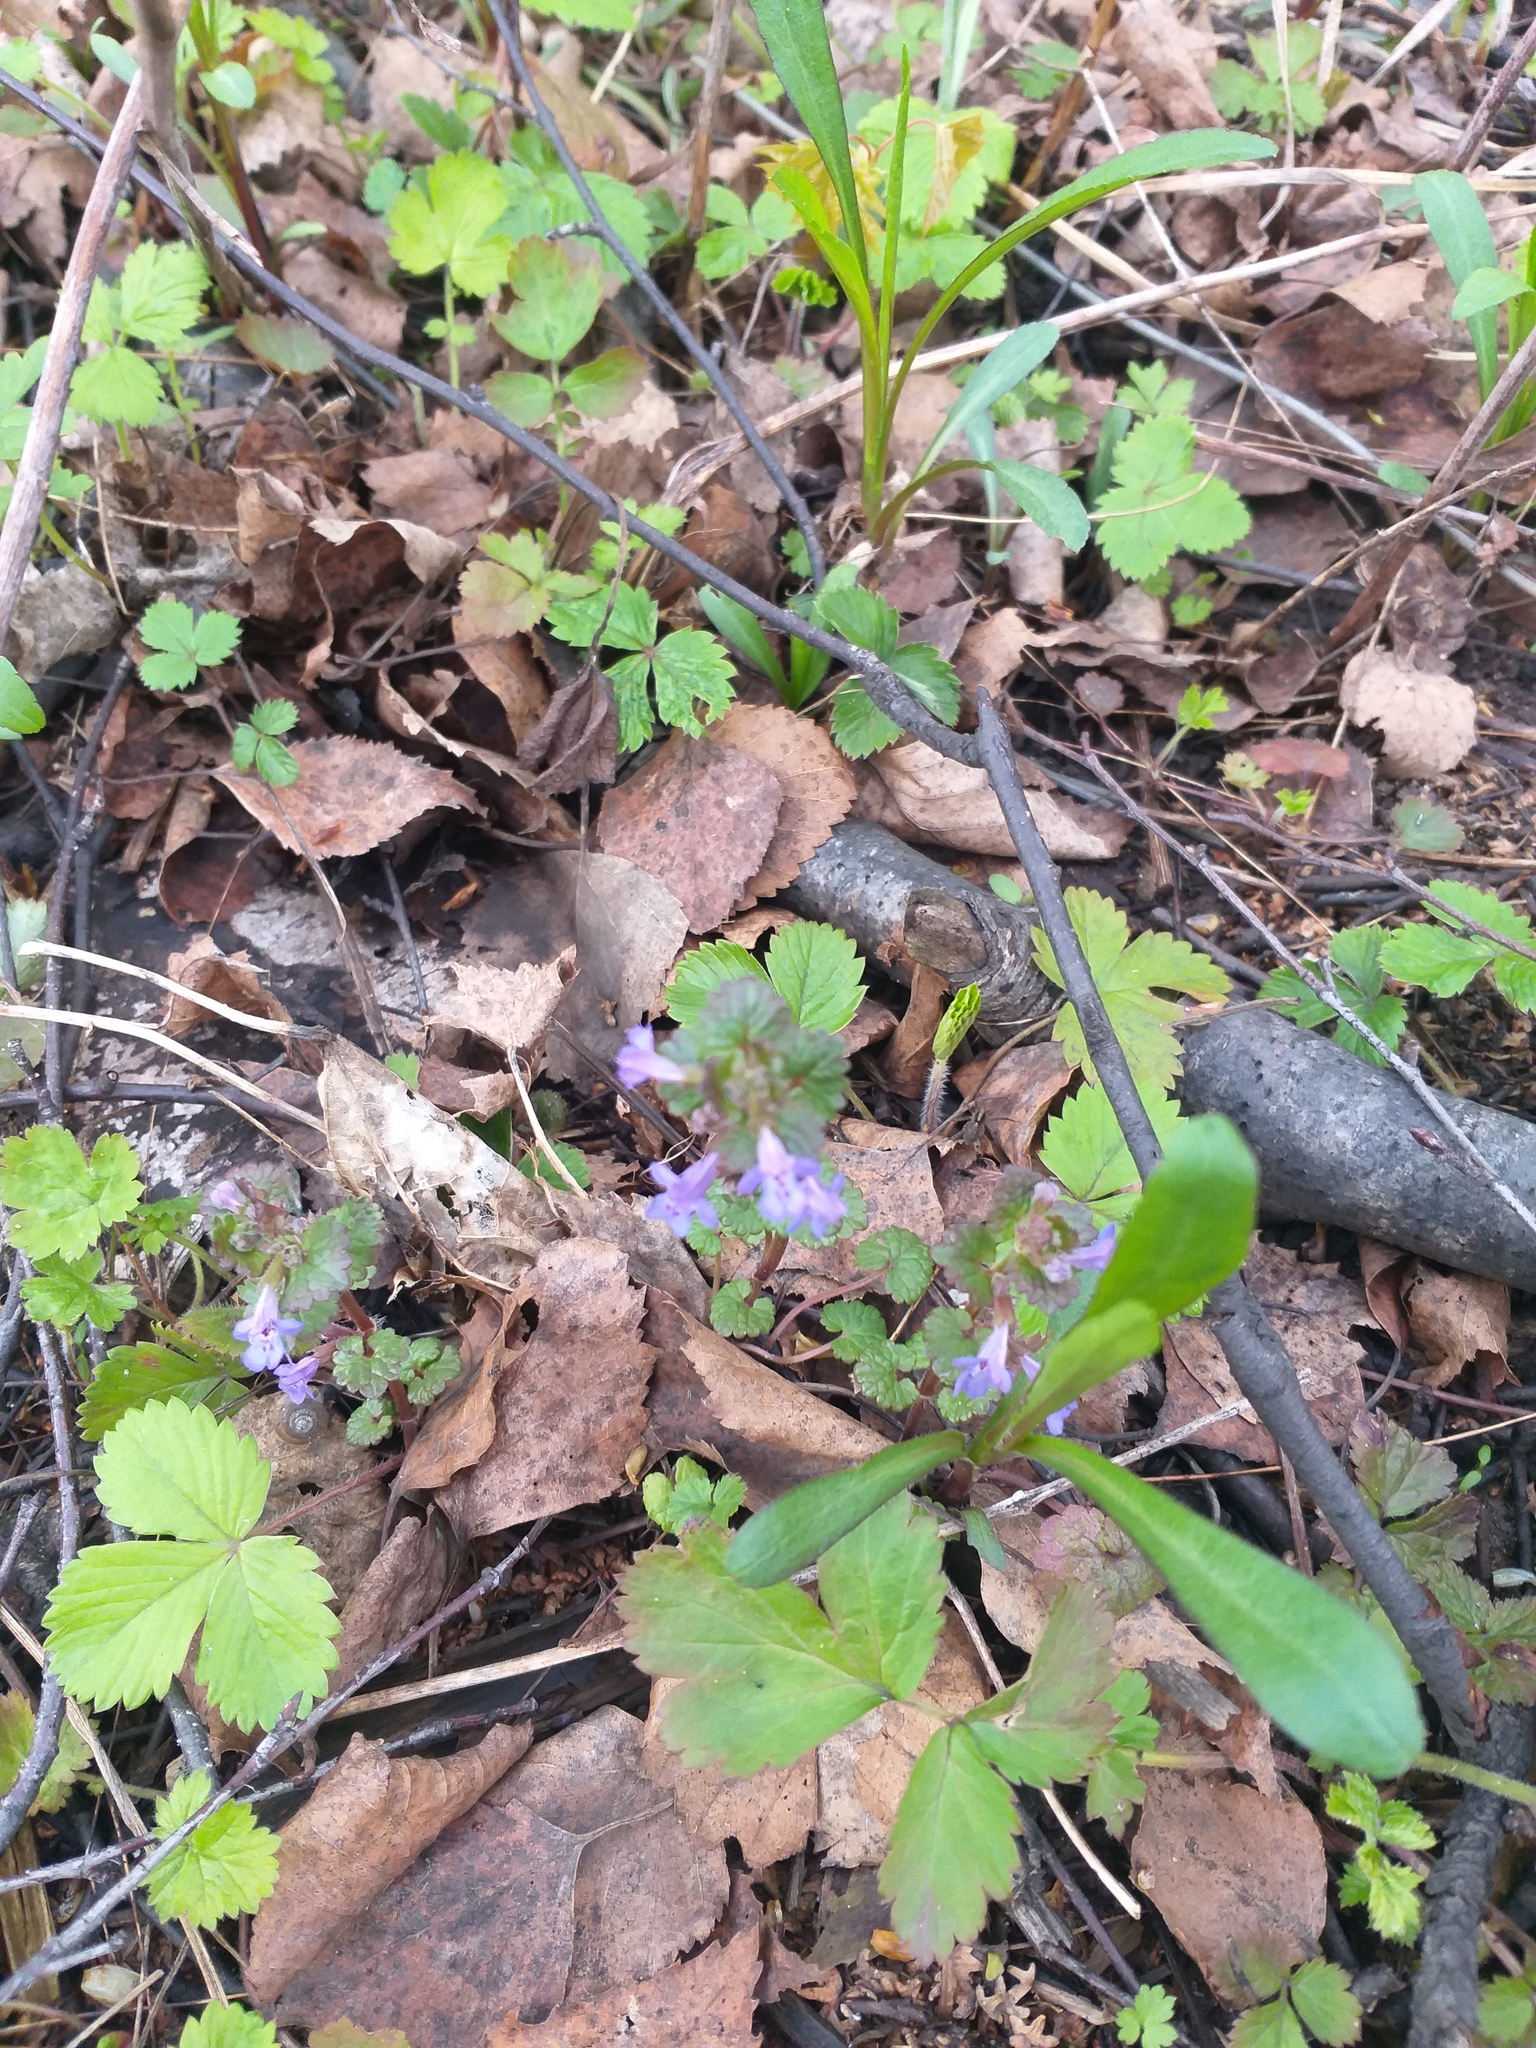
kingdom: Plantae
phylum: Tracheophyta
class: Magnoliopsida
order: Lamiales
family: Lamiaceae
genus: Glechoma
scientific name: Glechoma hederacea
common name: Ground ivy
